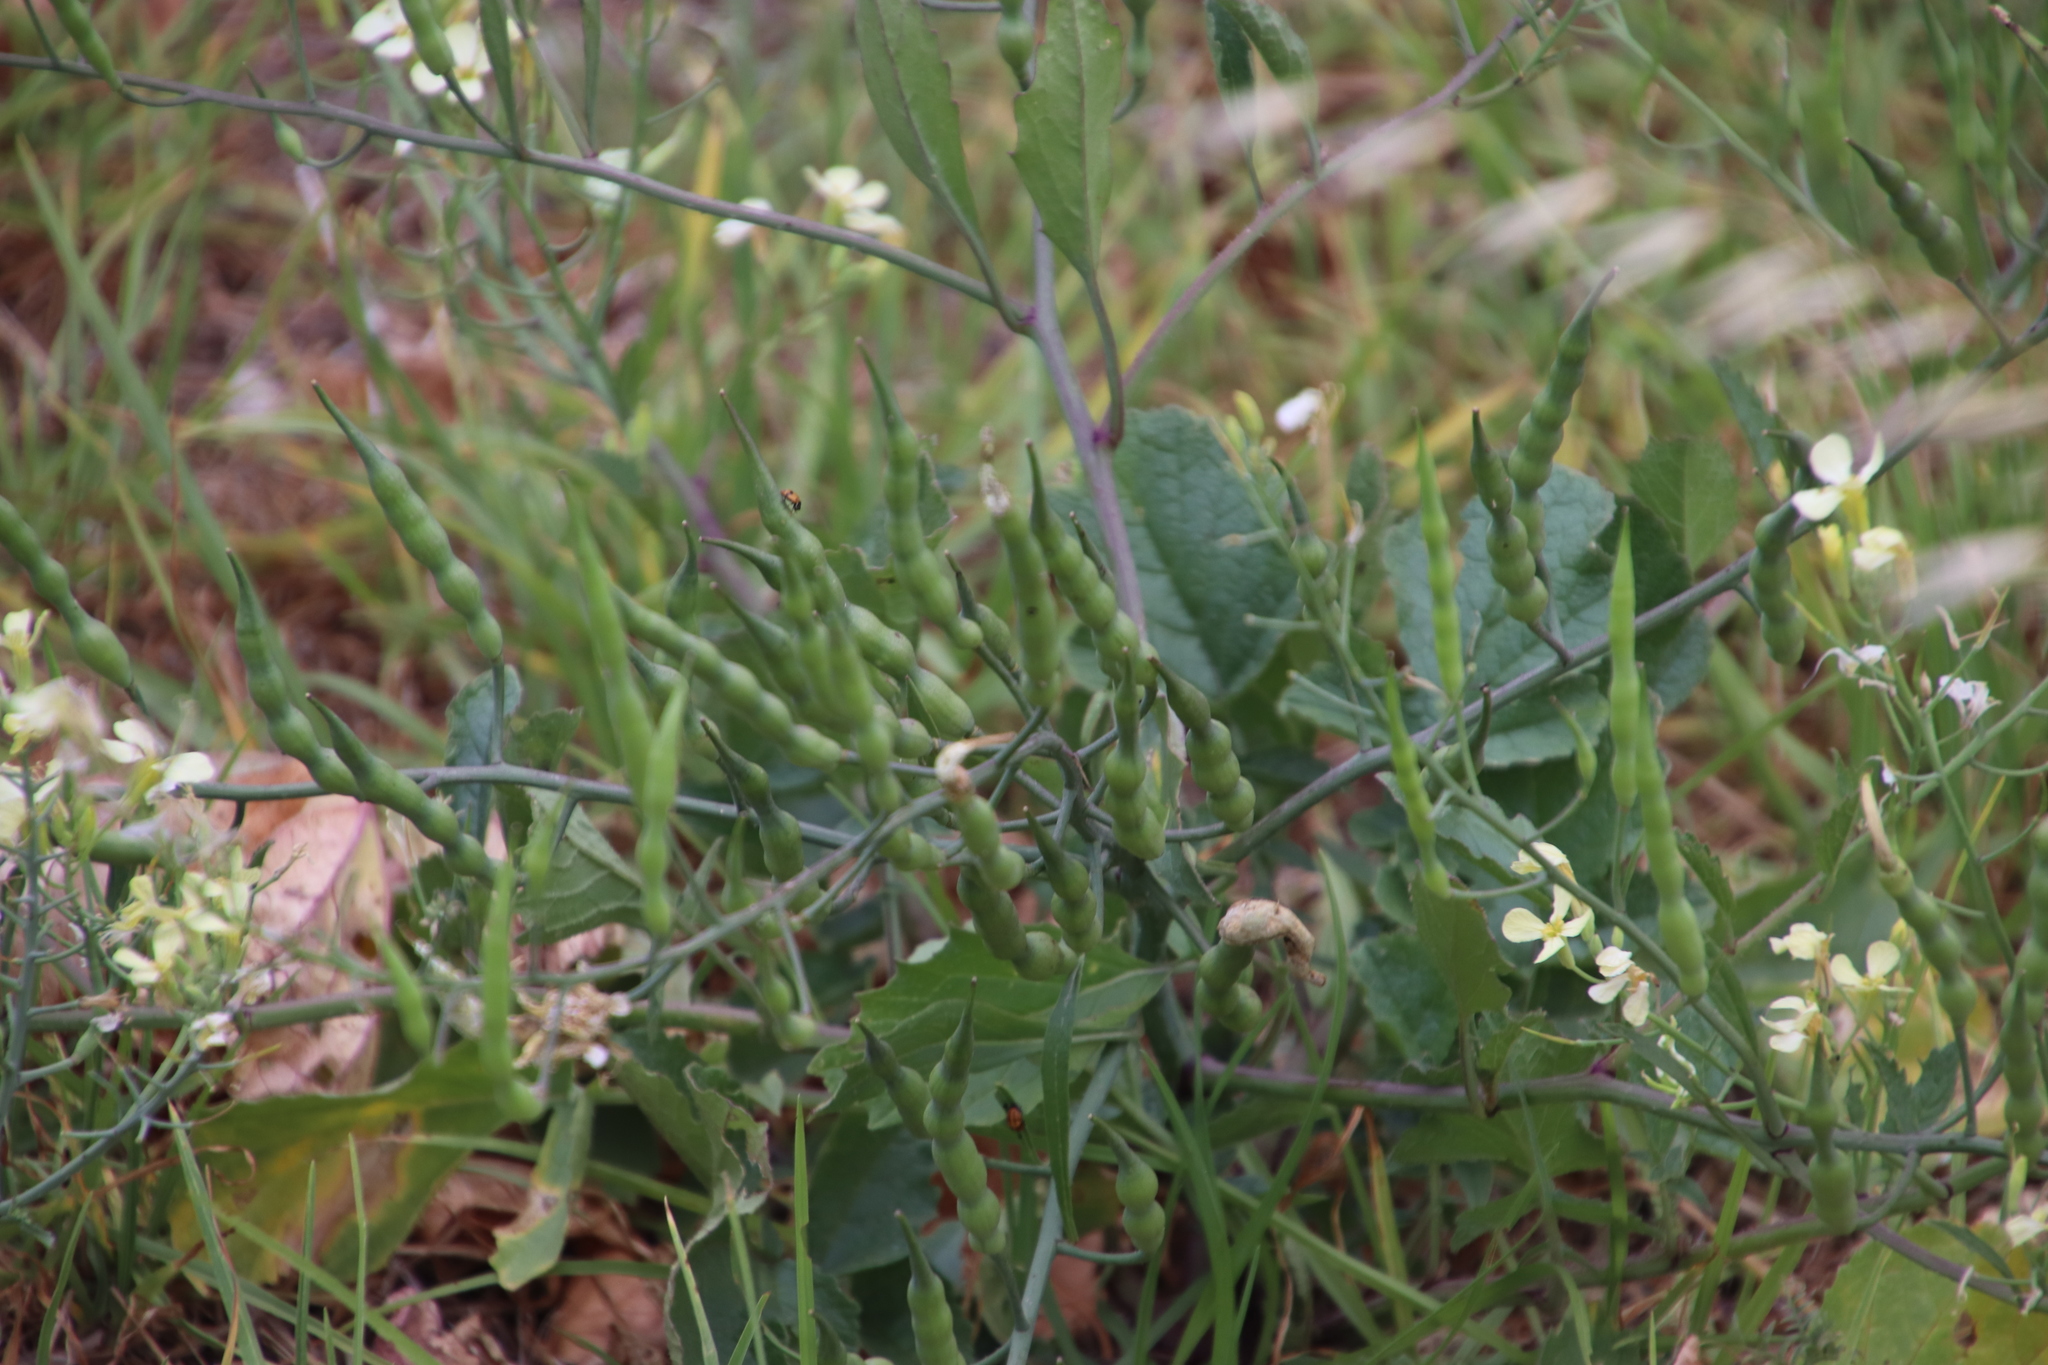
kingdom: Plantae
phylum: Tracheophyta
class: Magnoliopsida
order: Brassicales
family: Brassicaceae
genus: Raphanus
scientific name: Raphanus raphanistrum
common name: Wild radish
